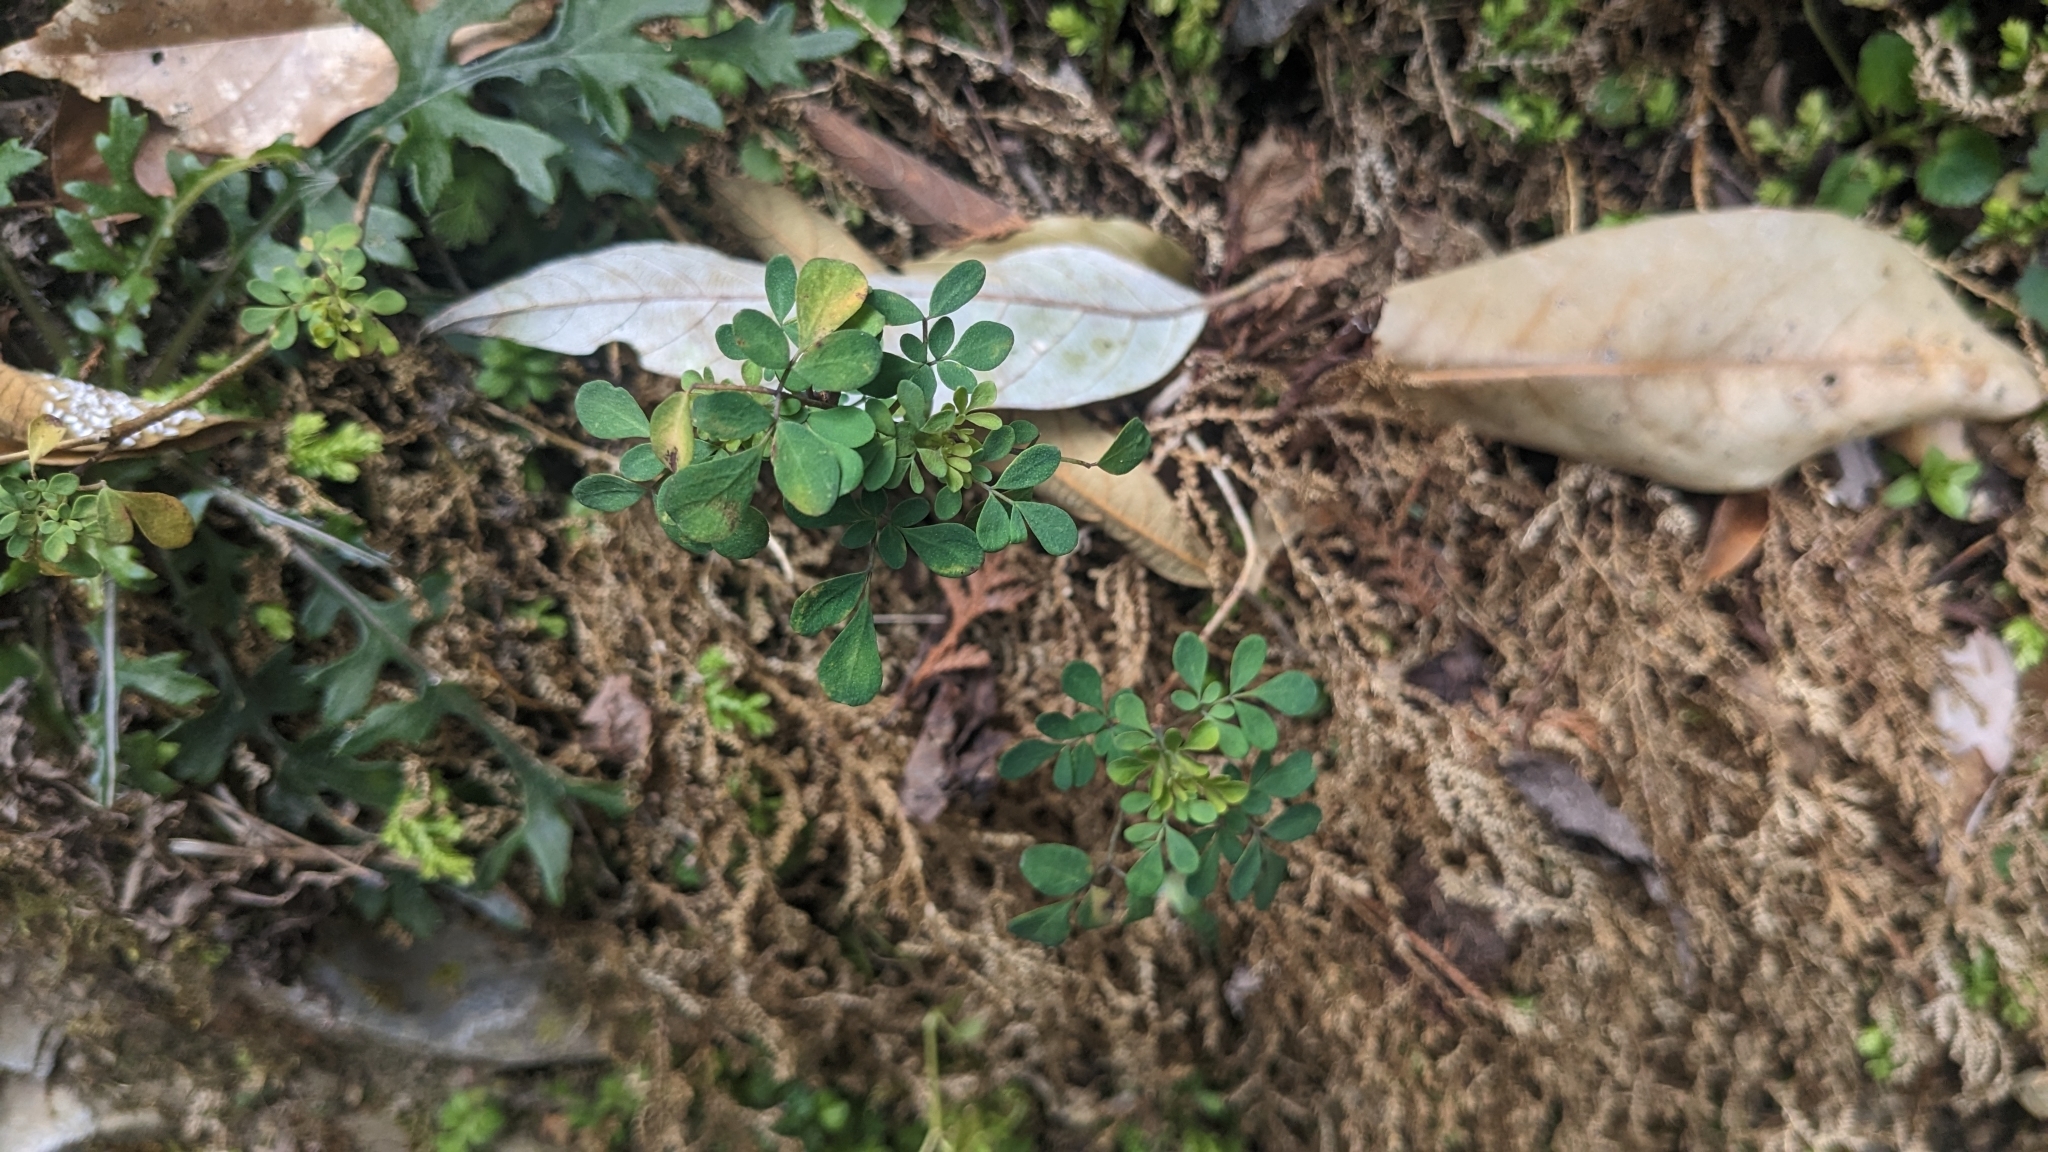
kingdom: Plantae
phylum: Tracheophyta
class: Magnoliopsida
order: Sapindales
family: Rutaceae
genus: Boenninghausenia
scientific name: Boenninghausenia albiflora
